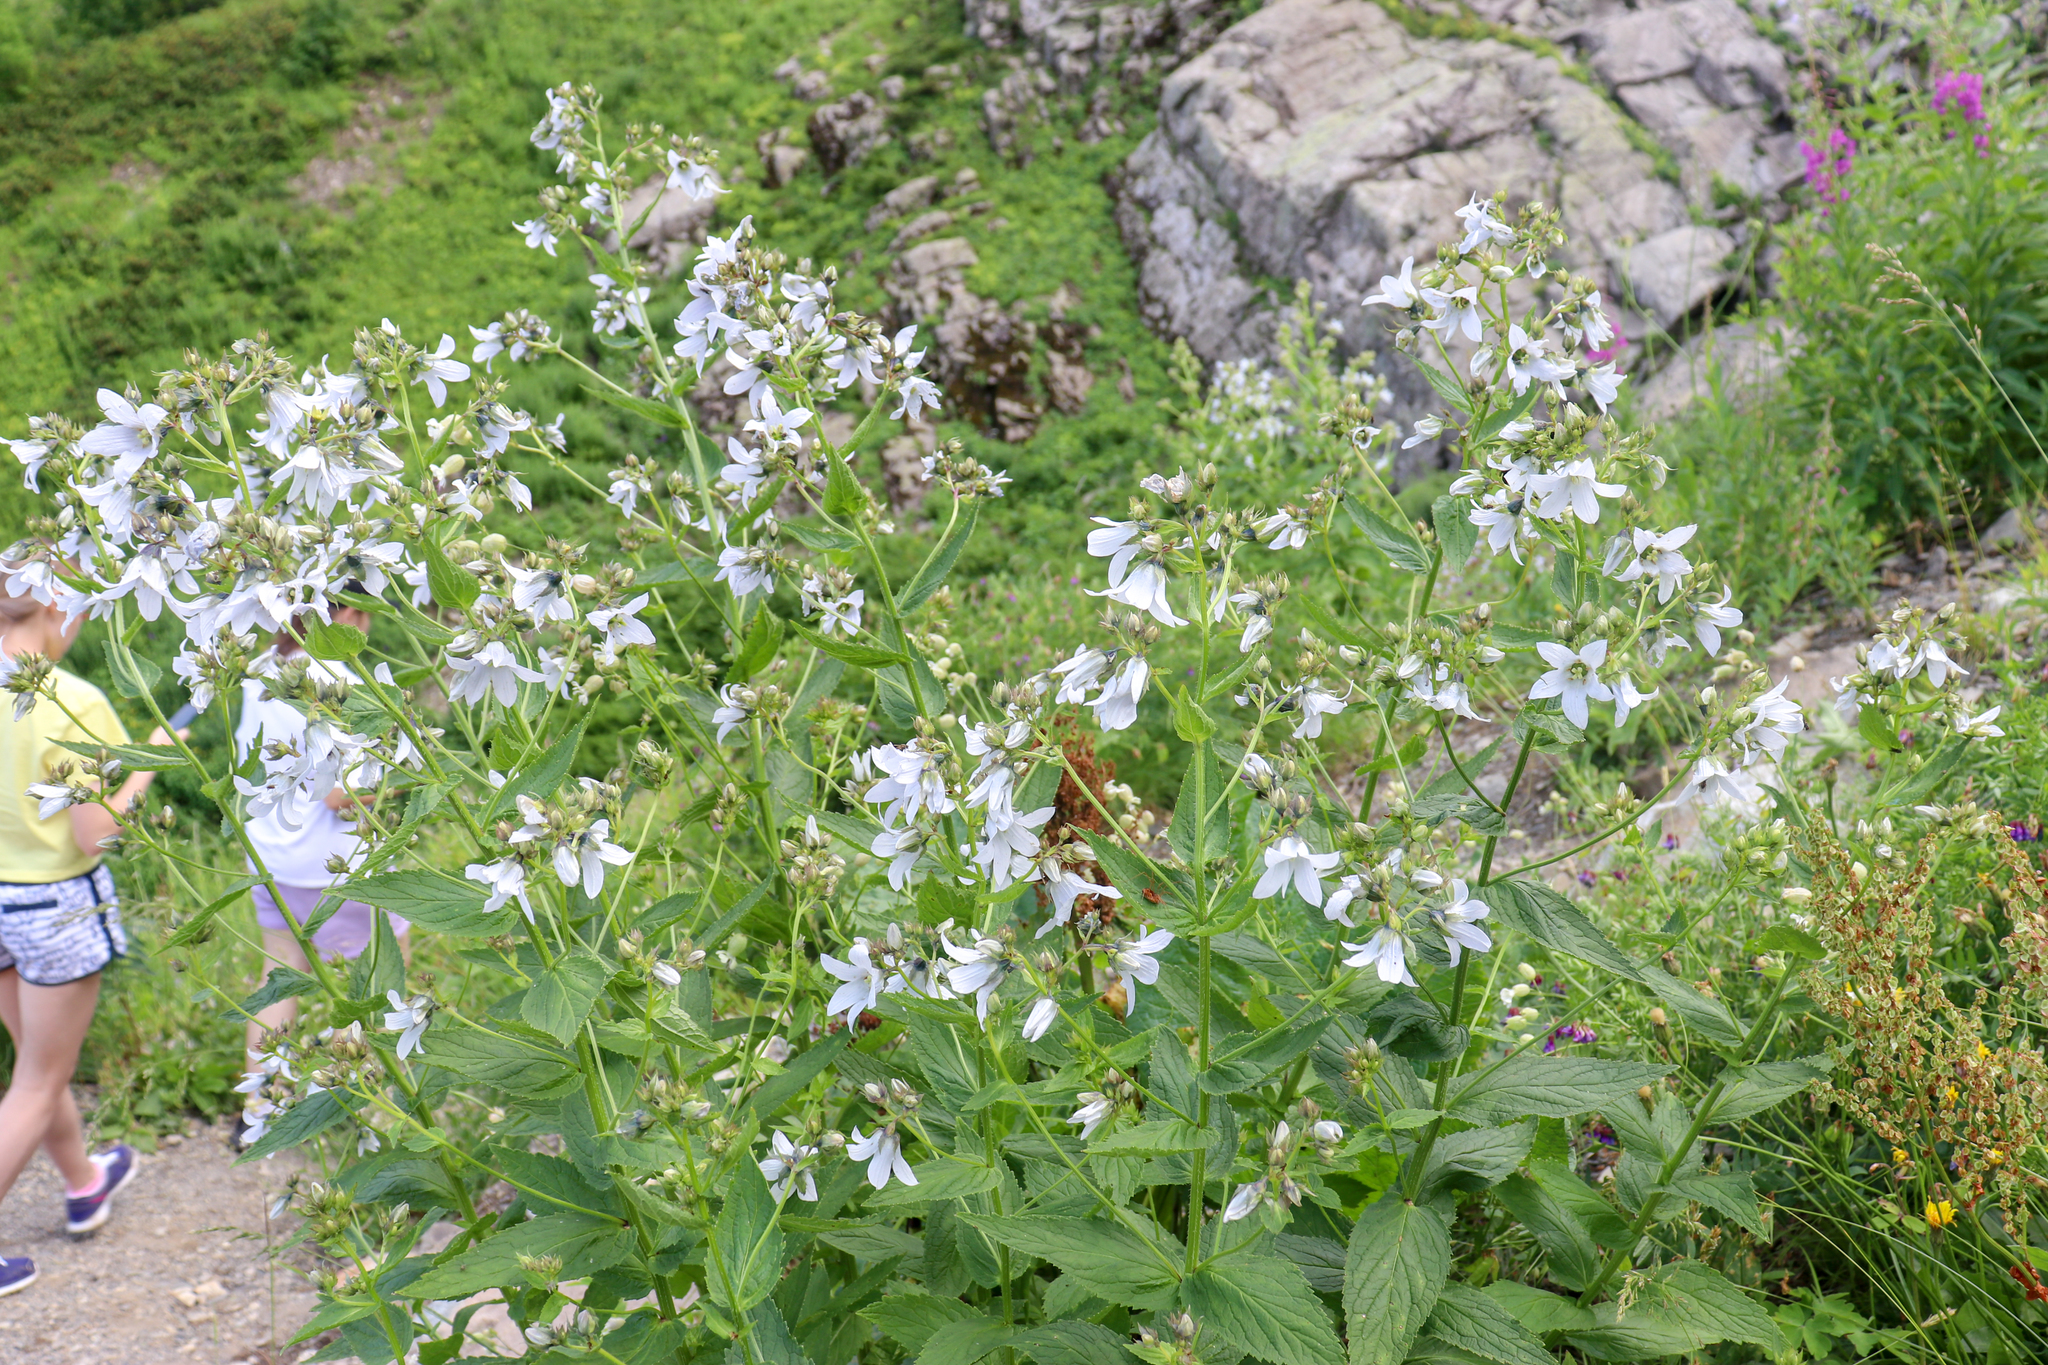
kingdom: Plantae
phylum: Tracheophyta
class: Magnoliopsida
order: Asterales
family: Campanulaceae
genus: Campanula
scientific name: Campanula lactiflora
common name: Milky bellflower
